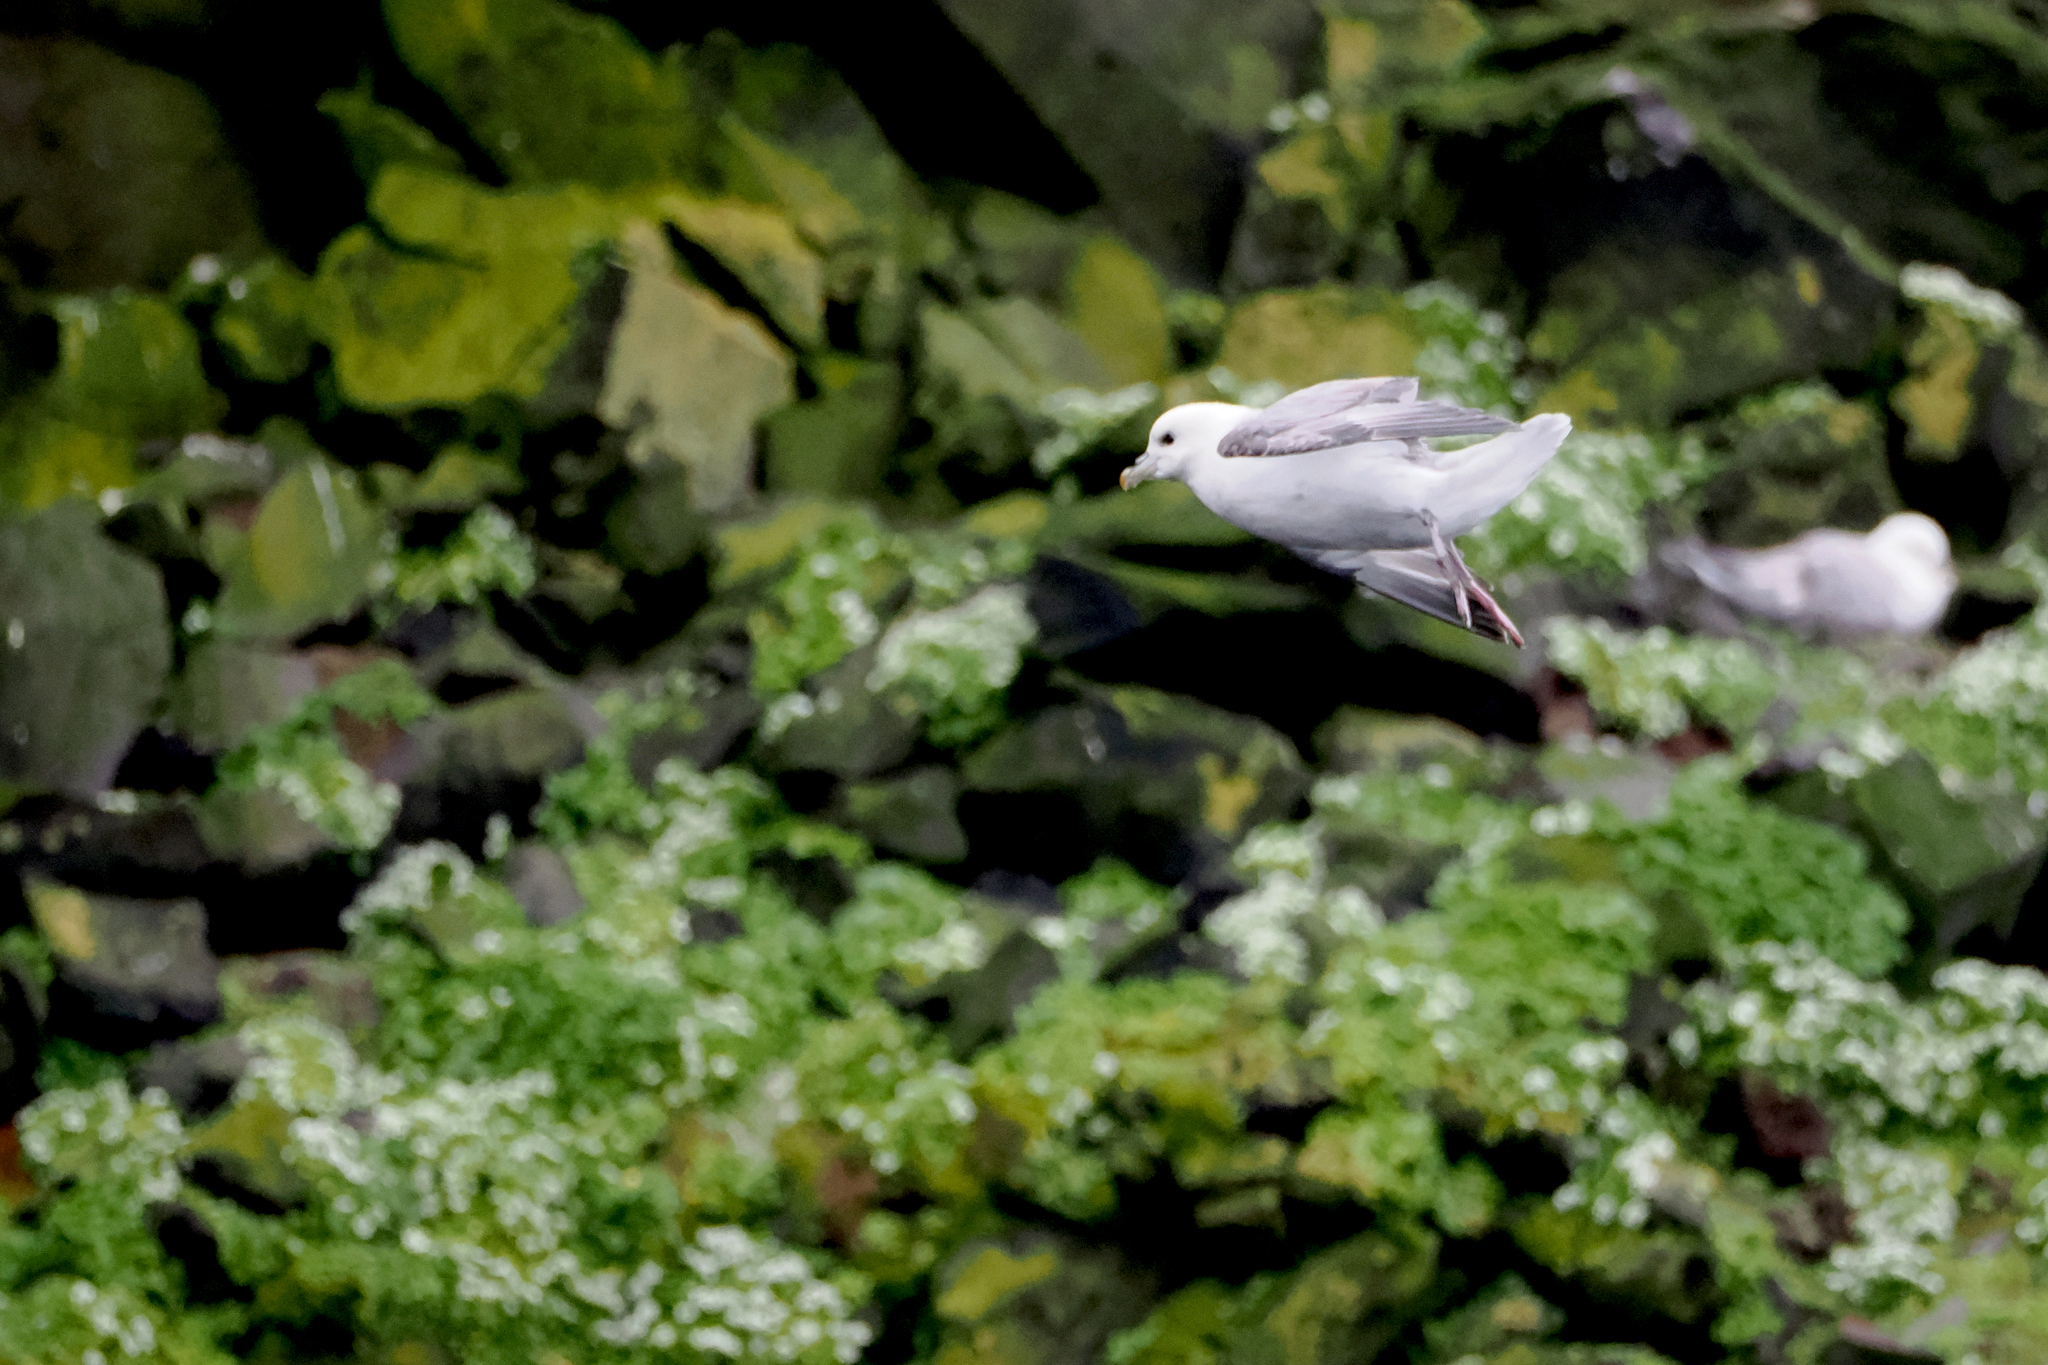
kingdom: Animalia
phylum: Chordata
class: Aves
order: Procellariiformes
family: Procellariidae
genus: Fulmarus
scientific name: Fulmarus glacialis
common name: Northern fulmar
